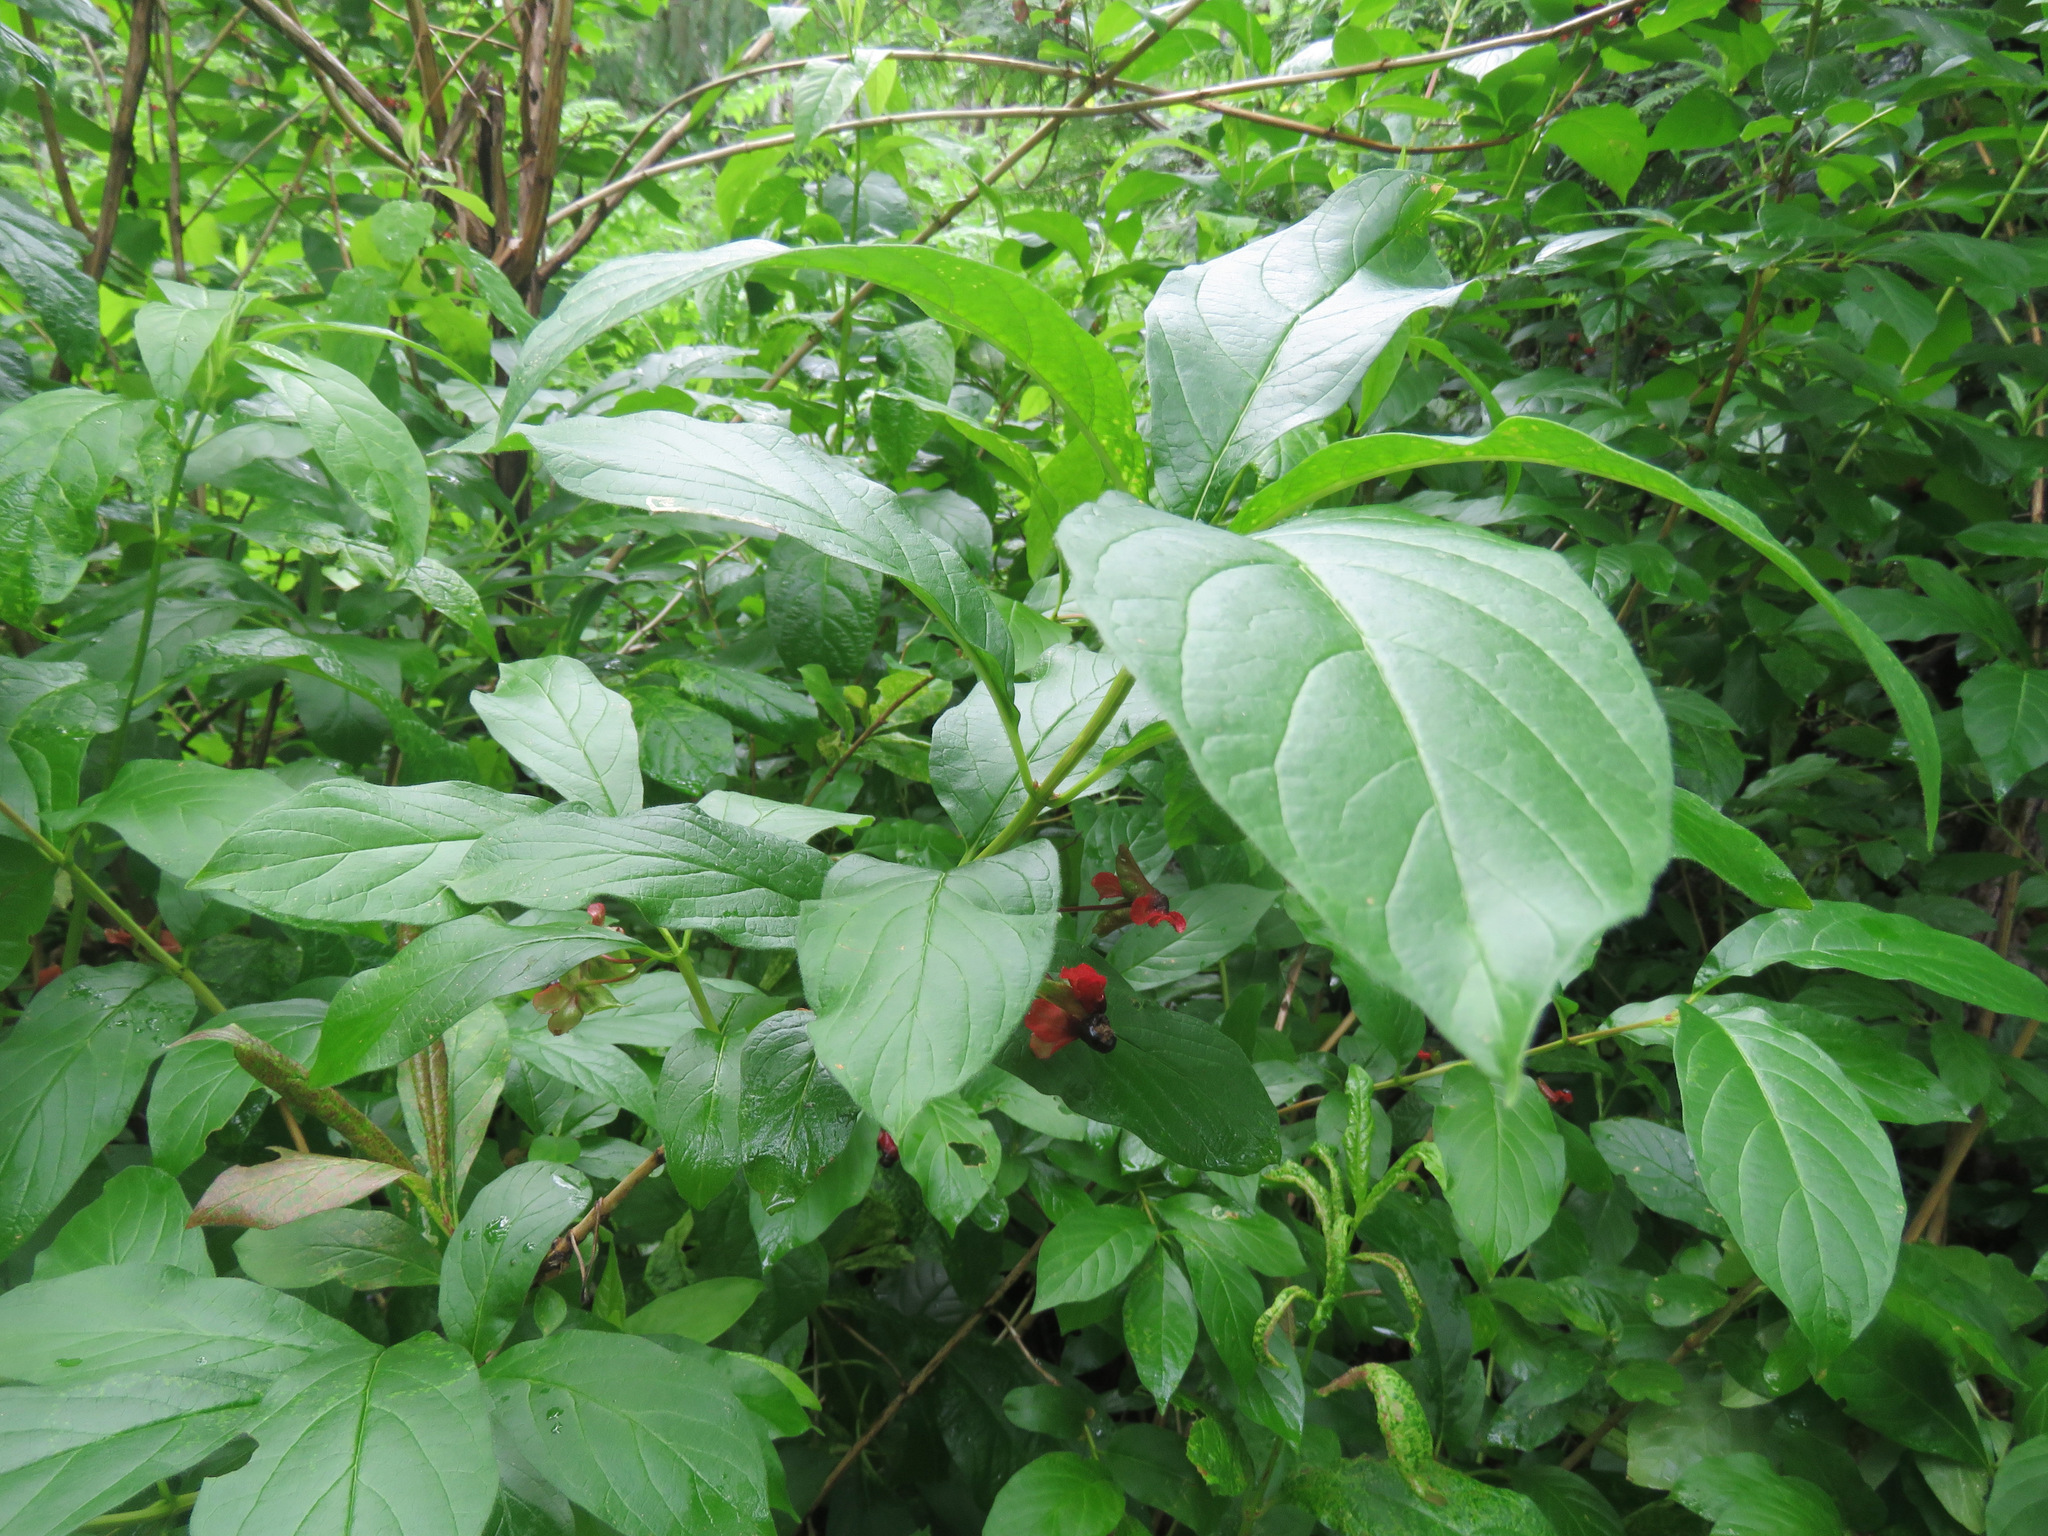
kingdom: Plantae
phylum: Tracheophyta
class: Magnoliopsida
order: Dipsacales
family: Caprifoliaceae
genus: Lonicera
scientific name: Lonicera involucrata
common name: Californian honeysuckle
